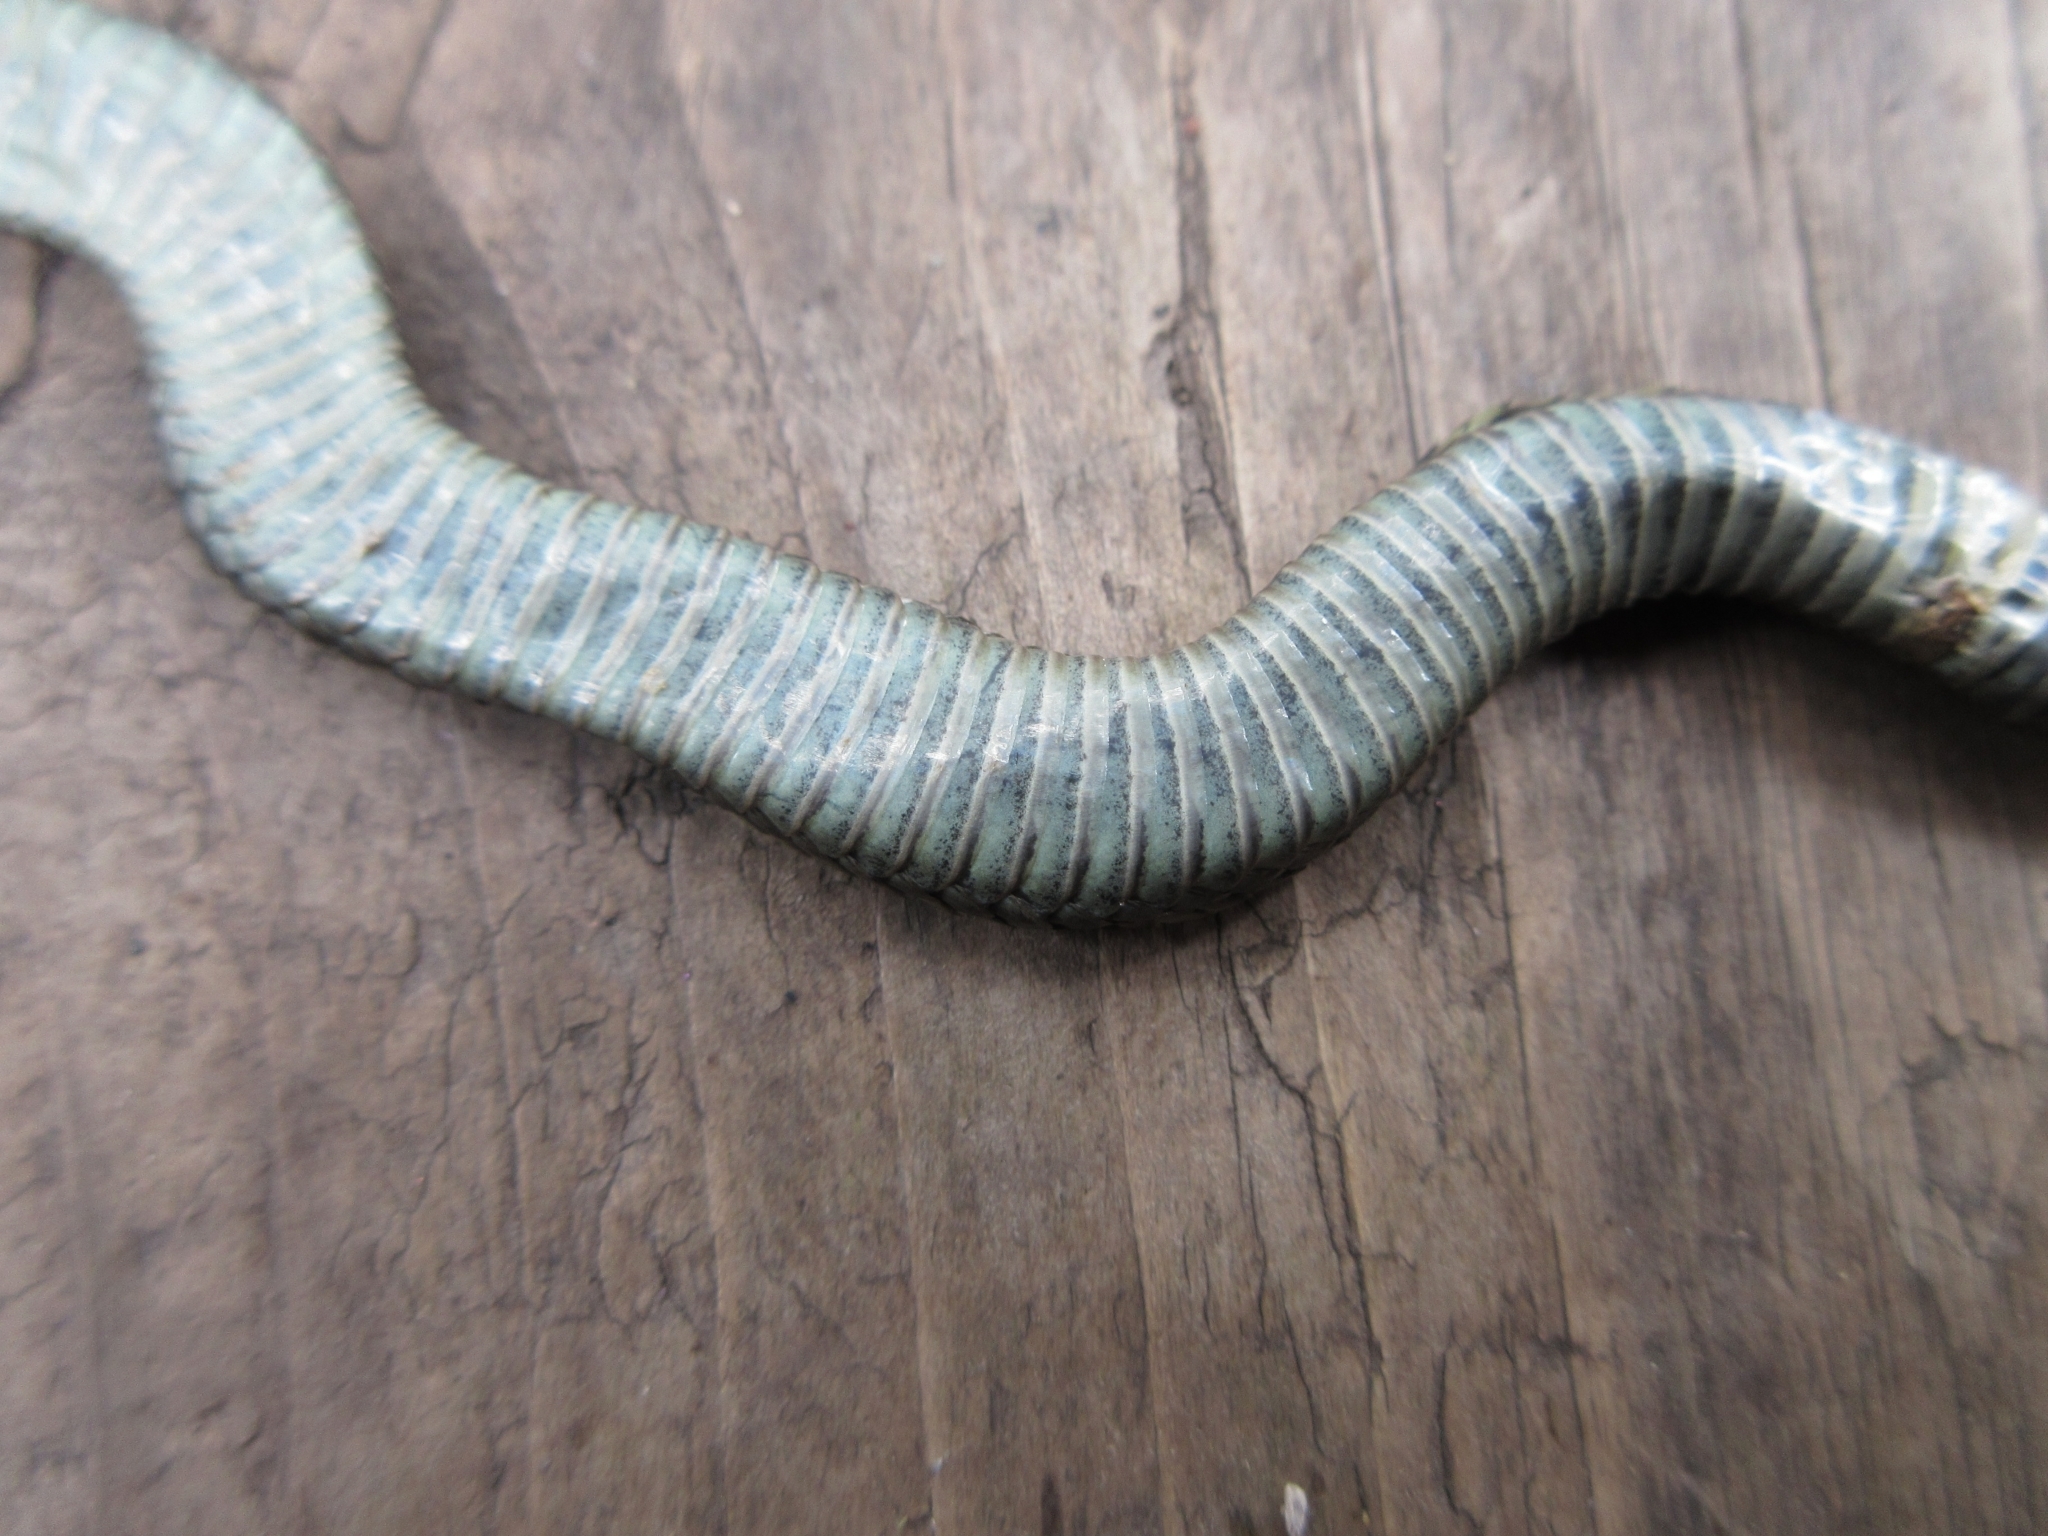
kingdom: Animalia
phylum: Chordata
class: Squamata
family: Colubridae
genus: Thamnophis
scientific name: Thamnophis ordinoides
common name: Northwestern garter snake
